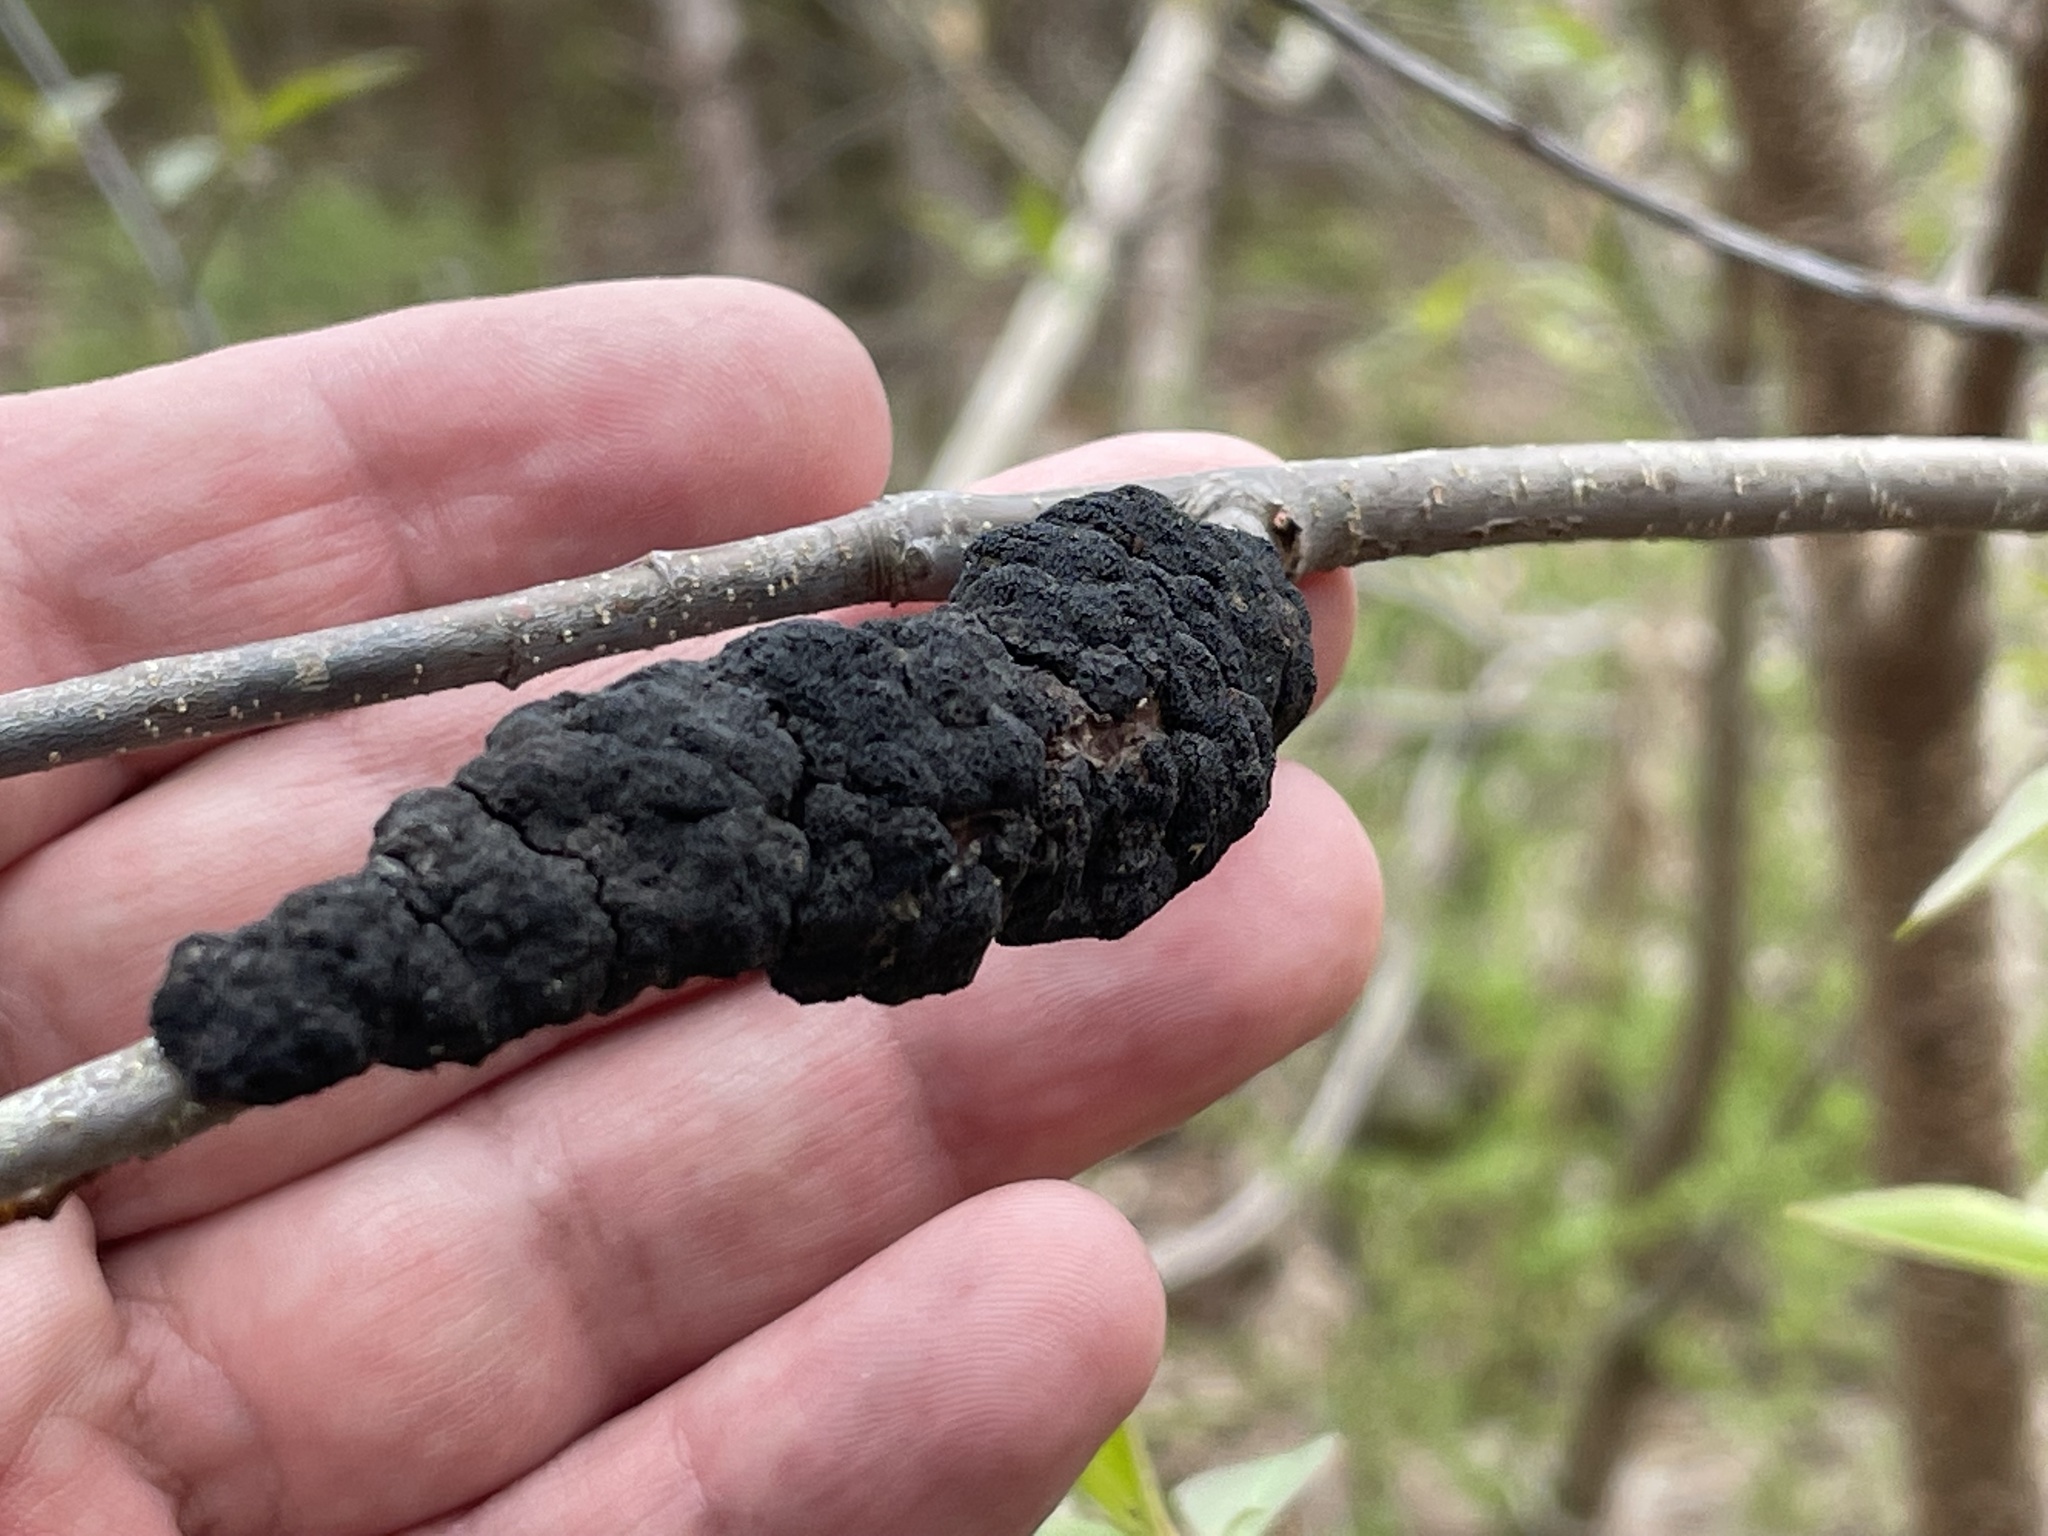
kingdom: Fungi
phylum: Ascomycota
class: Dothideomycetes
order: Venturiales
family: Venturiaceae
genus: Apiosporina
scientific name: Apiosporina morbosa
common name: Black knot
